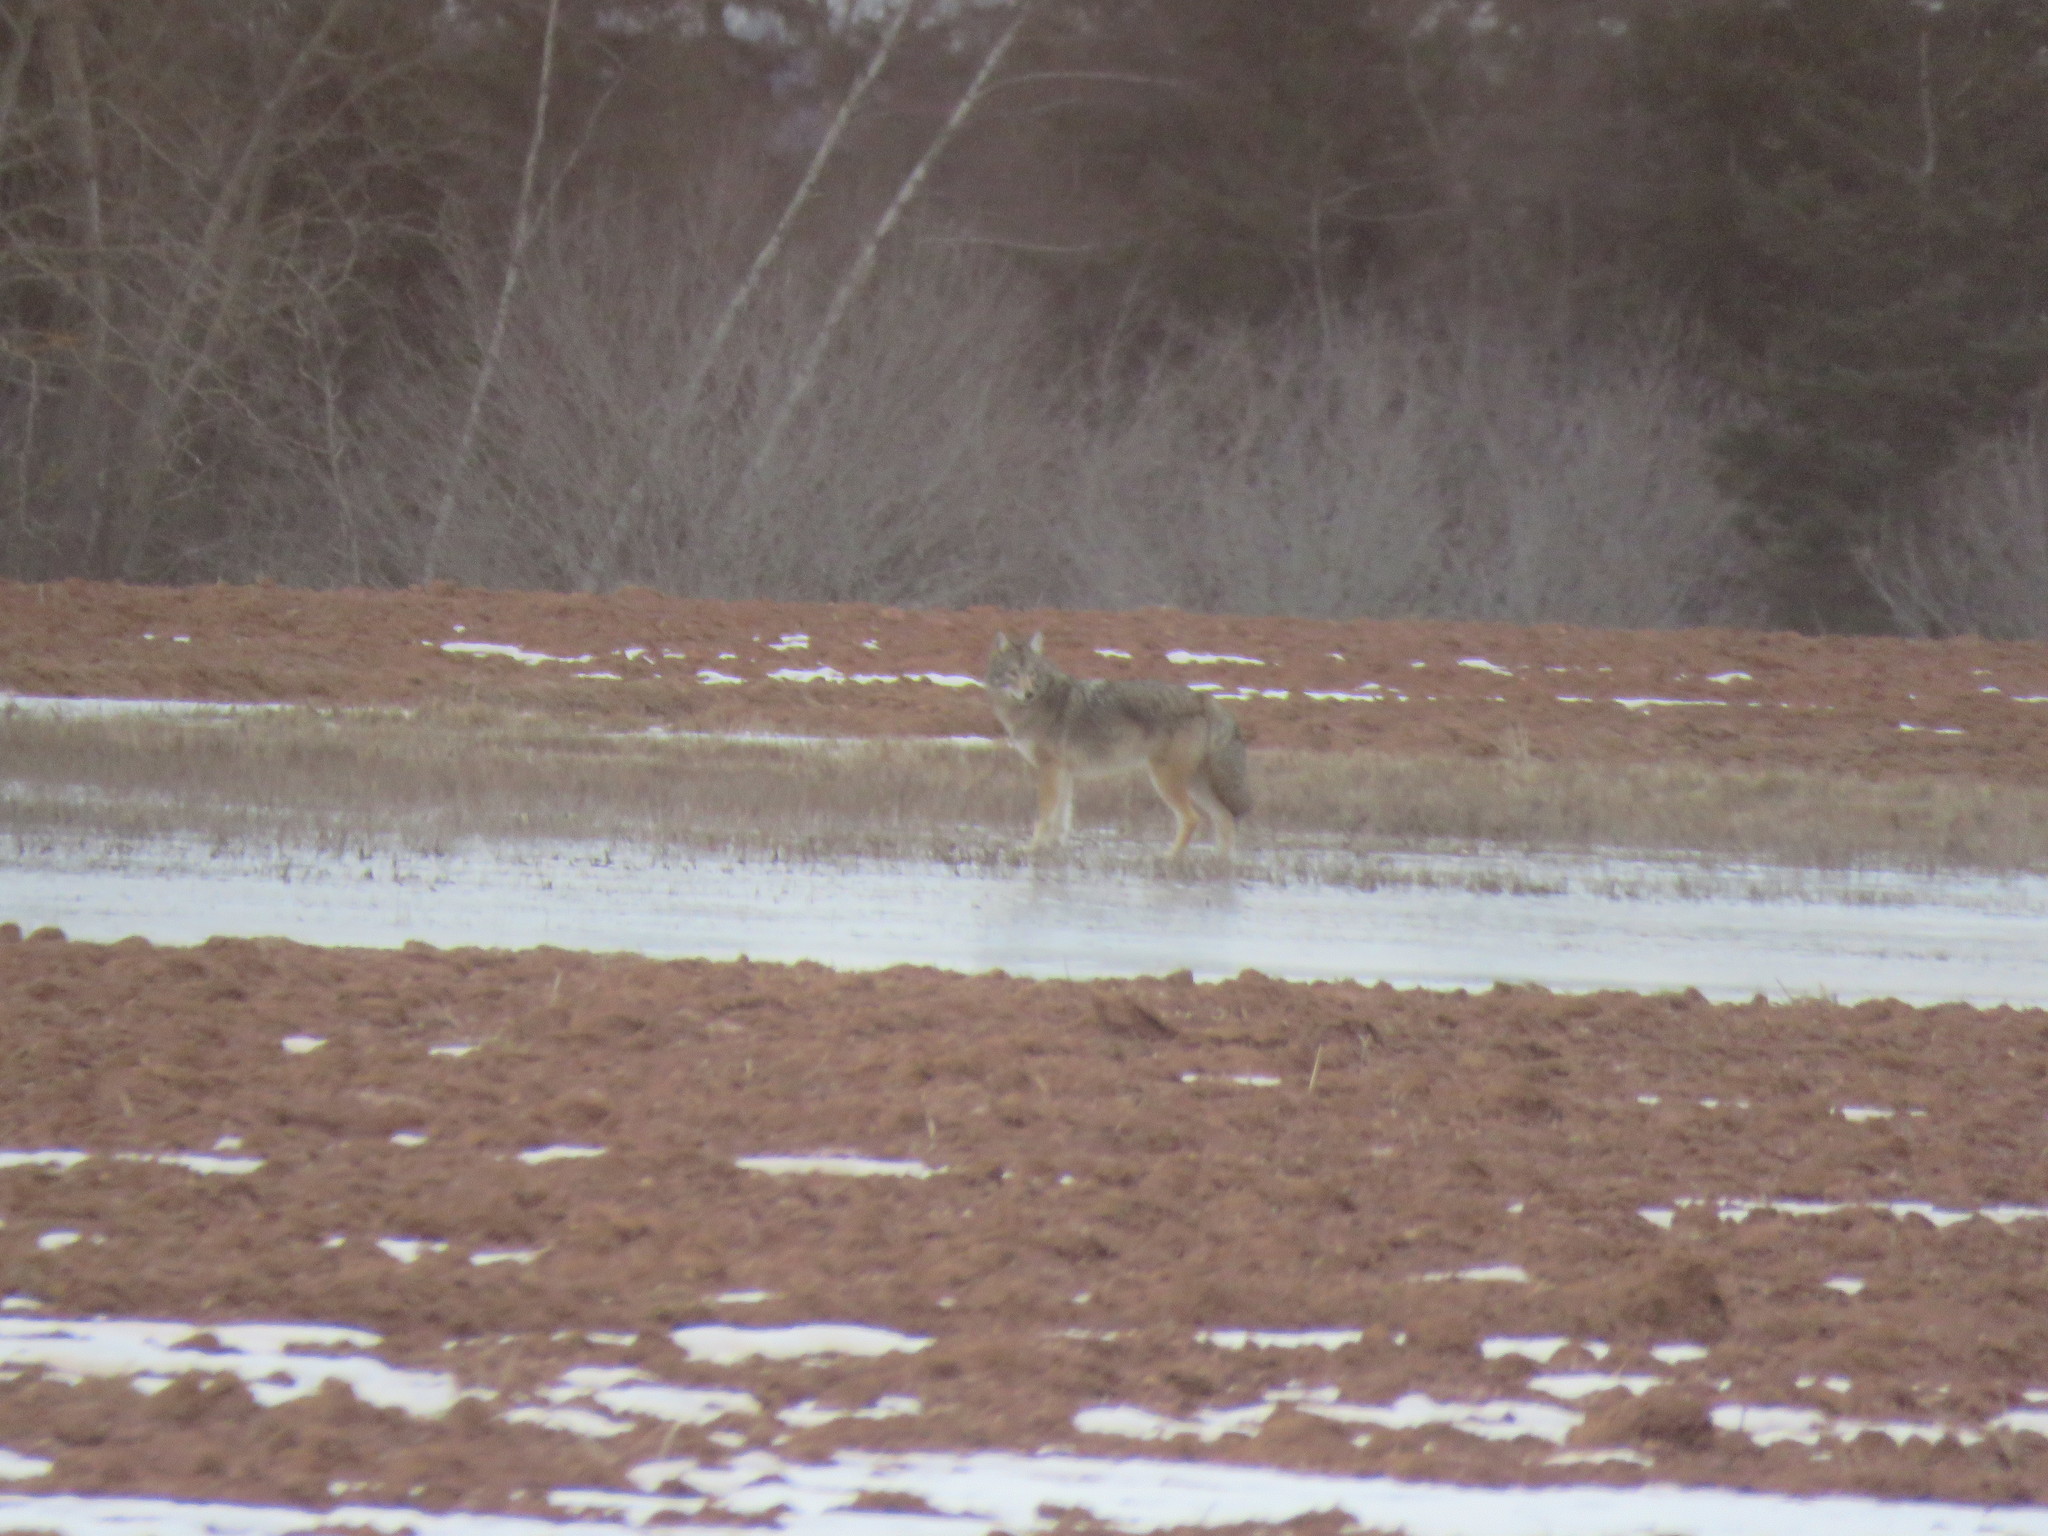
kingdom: Animalia
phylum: Chordata
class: Mammalia
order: Carnivora
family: Canidae
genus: Canis
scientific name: Canis latrans
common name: Coyote
